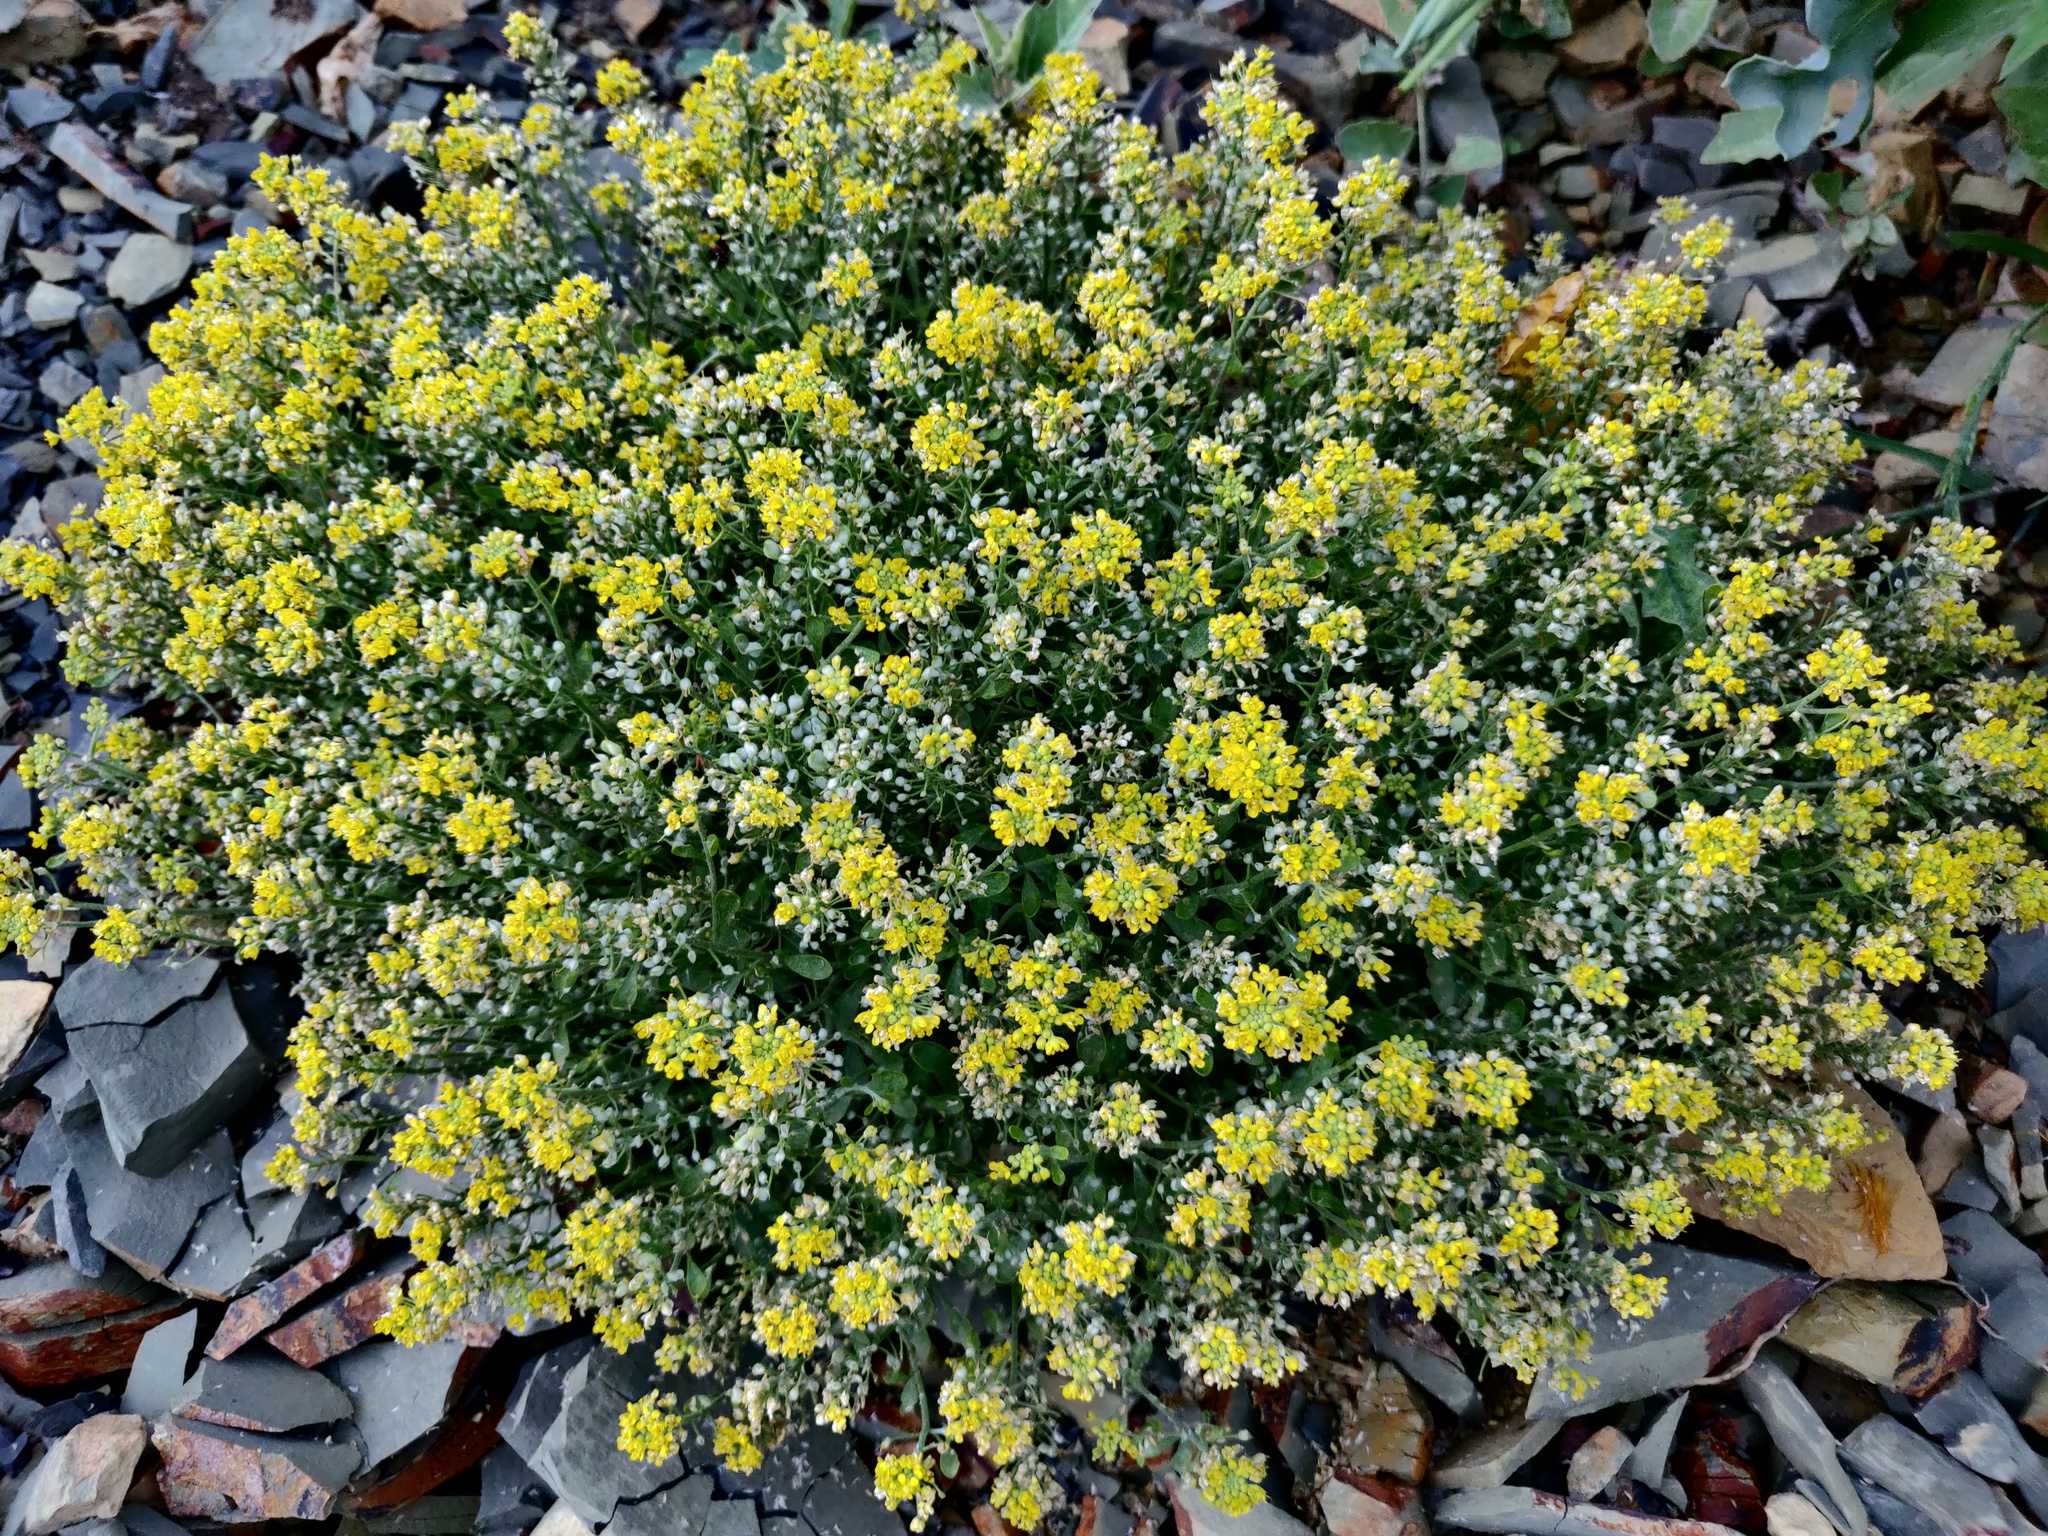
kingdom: Plantae
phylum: Tracheophyta
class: Magnoliopsida
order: Brassicales
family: Brassicaceae
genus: Odontarrhena
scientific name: Odontarrhena obtusifolia
